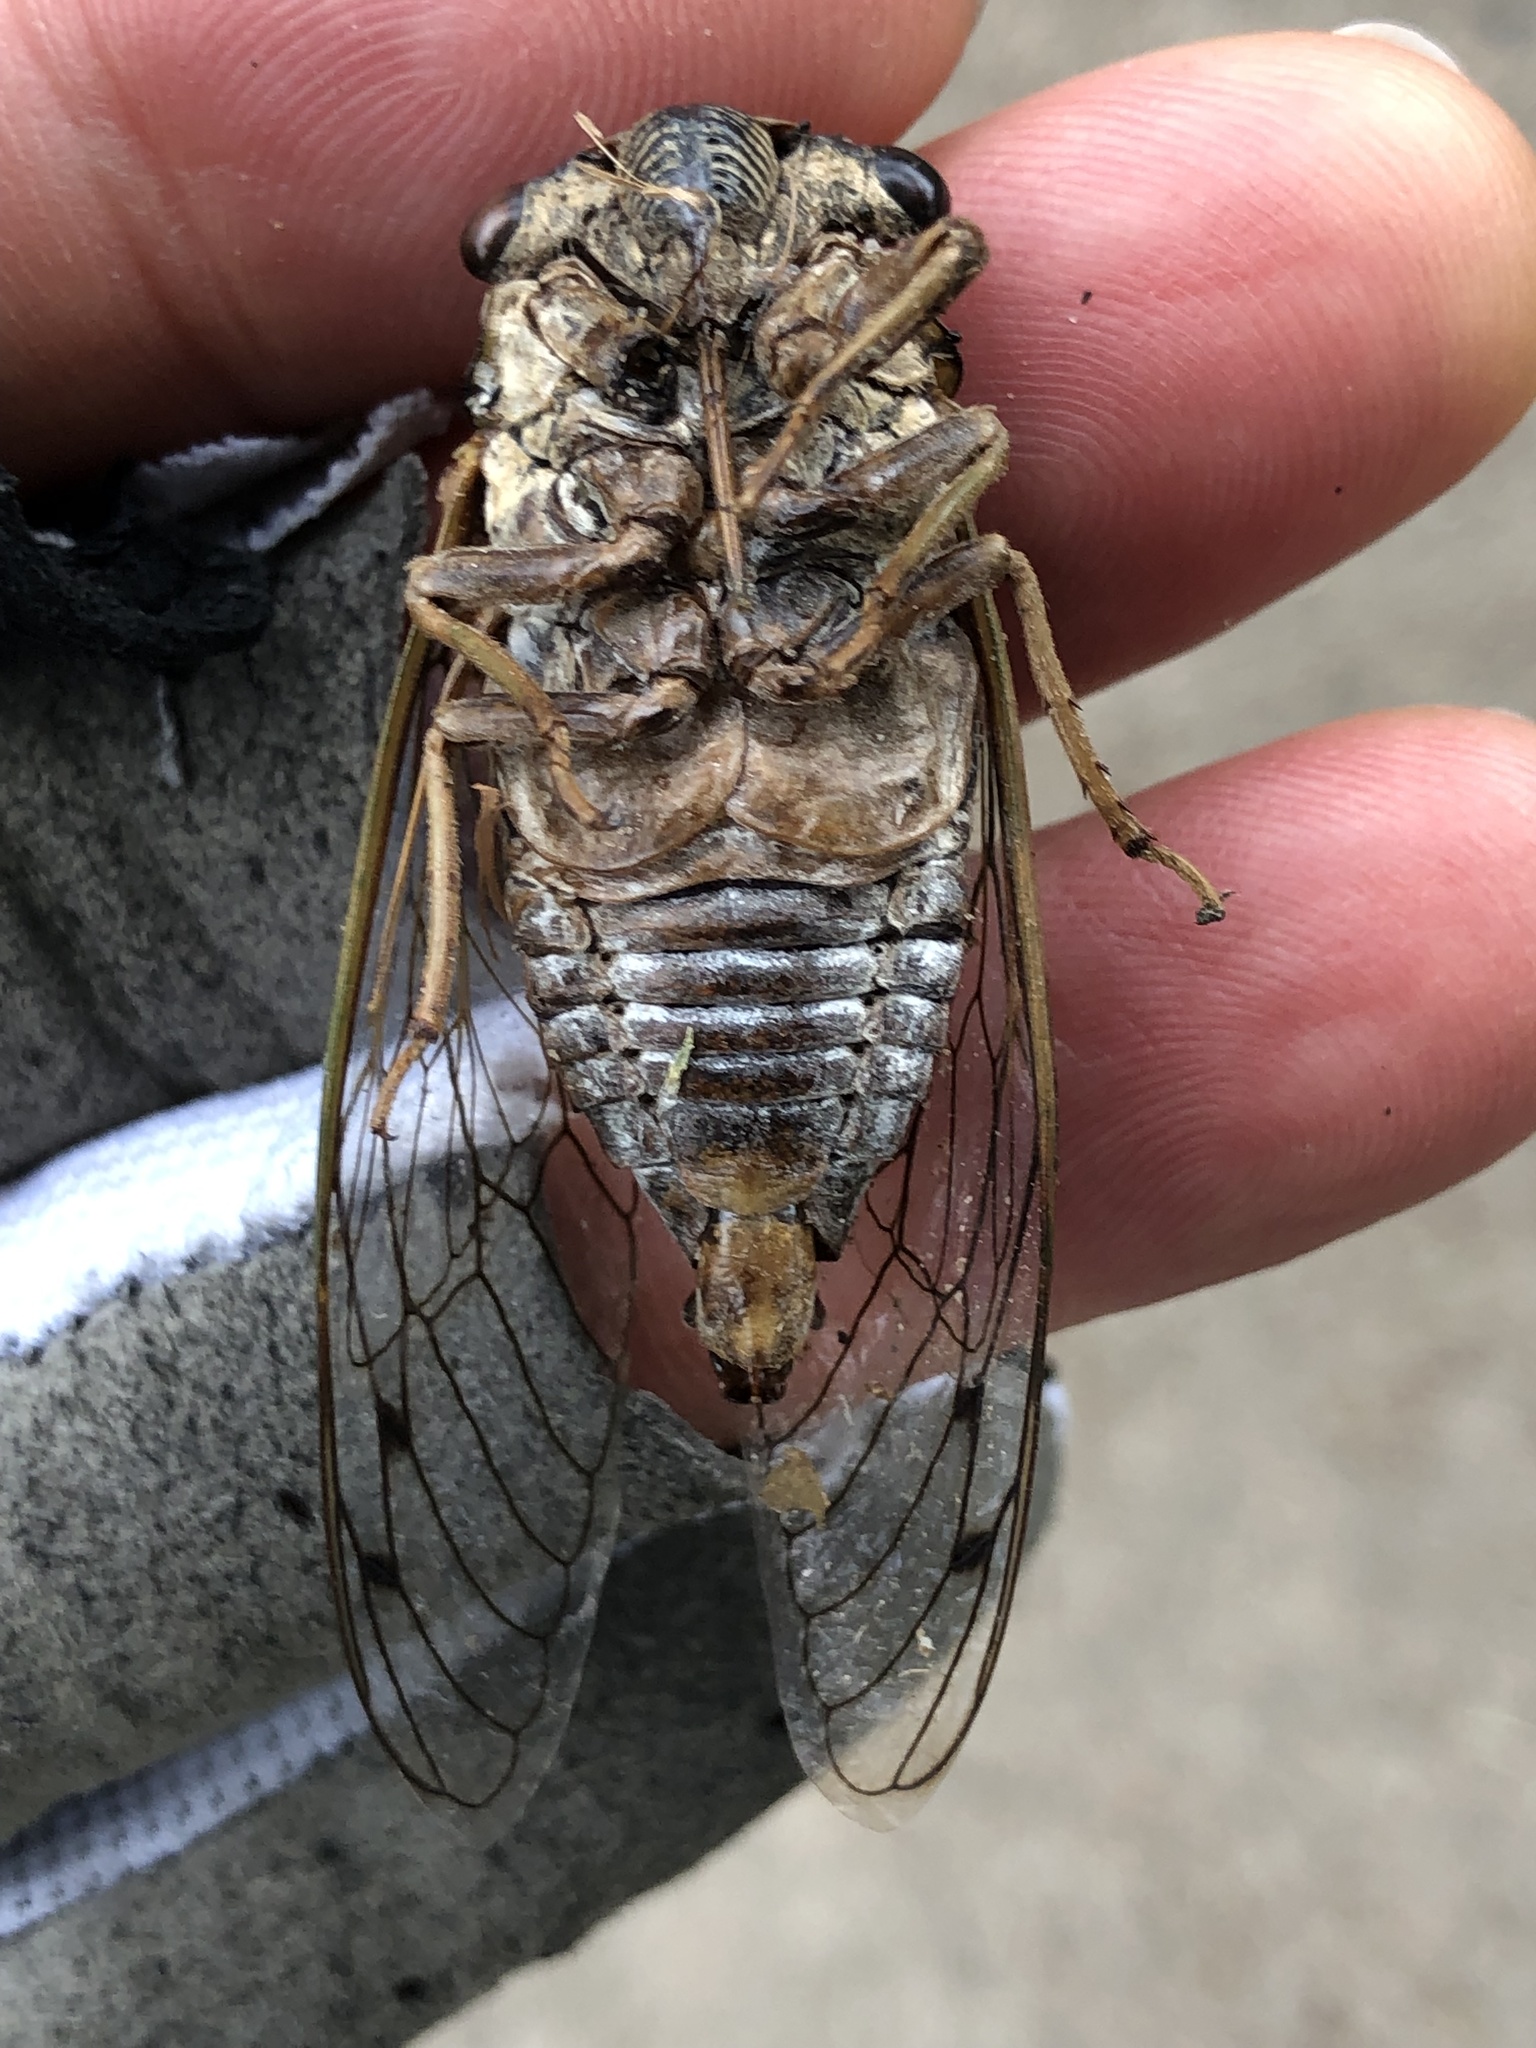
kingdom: Animalia
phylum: Arthropoda
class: Insecta
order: Hemiptera
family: Cicadidae
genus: Megatibicen
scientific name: Megatibicen resh
